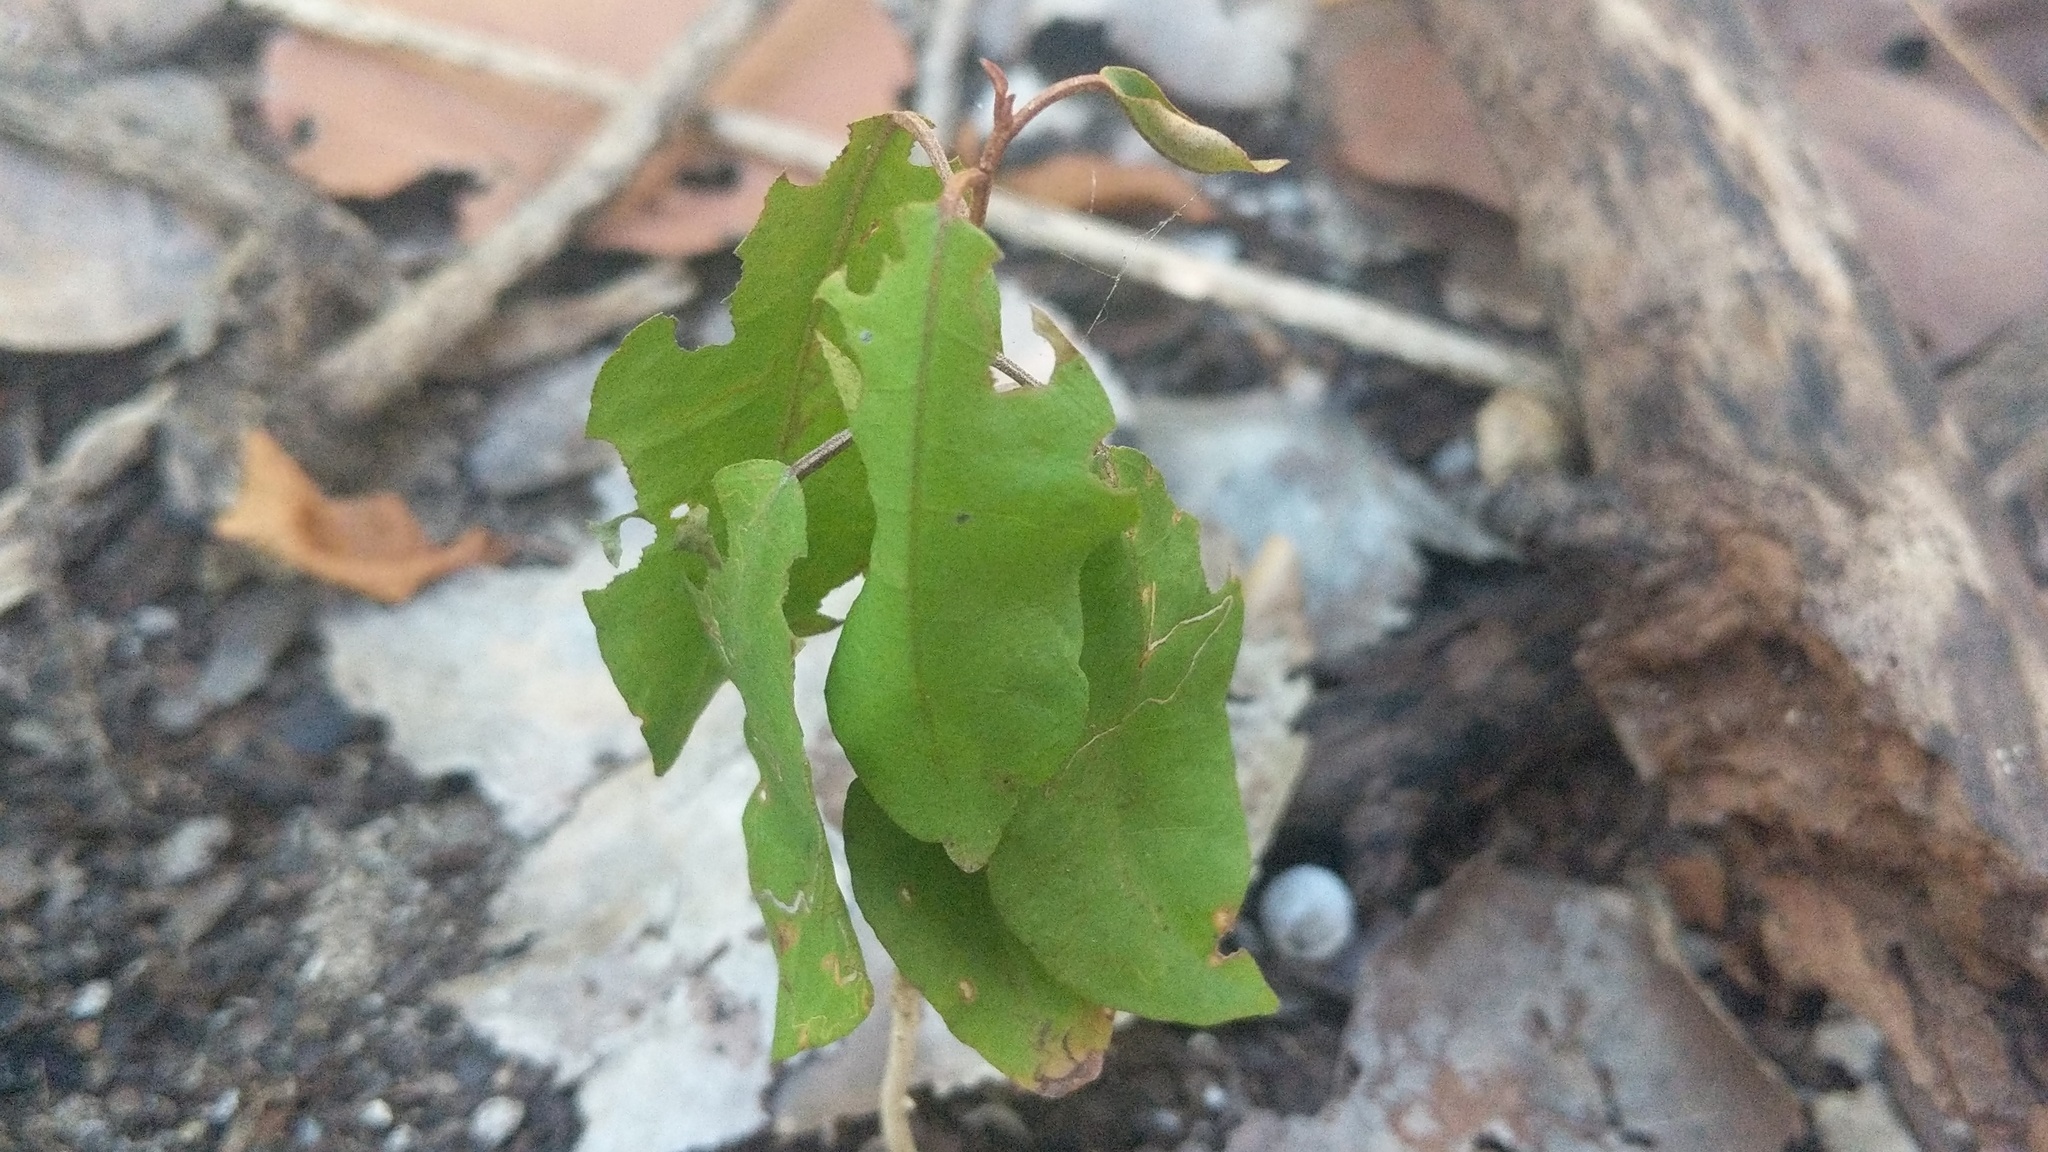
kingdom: Plantae
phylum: Tracheophyta
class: Magnoliopsida
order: Malpighiales
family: Euphorbiaceae
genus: Croton
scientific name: Croton nitens
